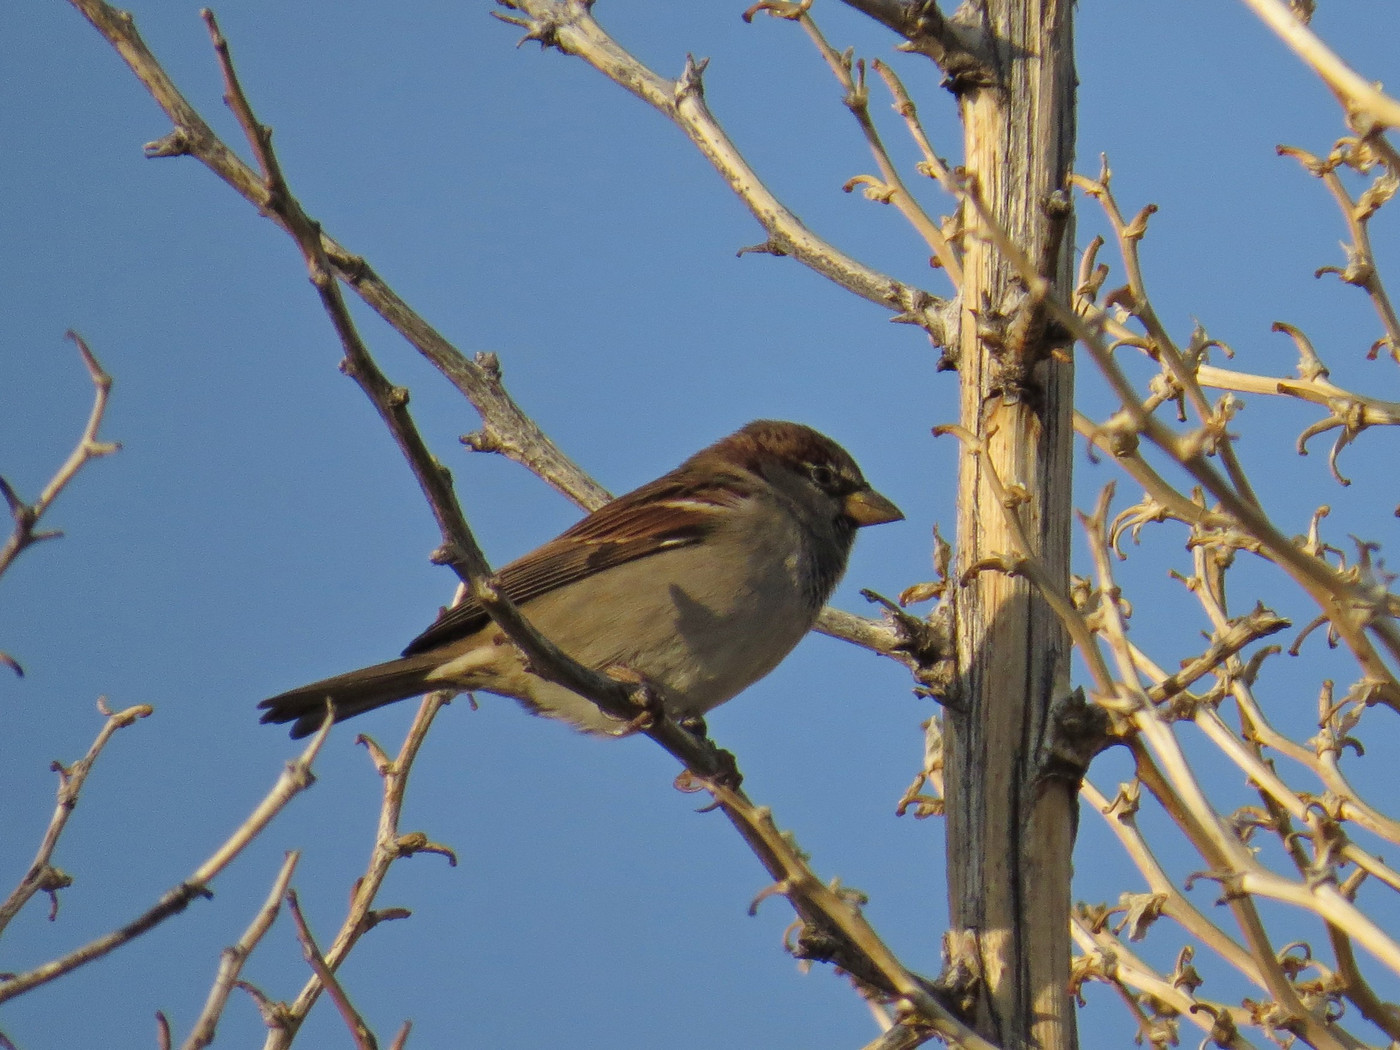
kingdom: Animalia
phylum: Chordata
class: Aves
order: Passeriformes
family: Passeridae
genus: Passer
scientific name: Passer domesticus
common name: House sparrow
